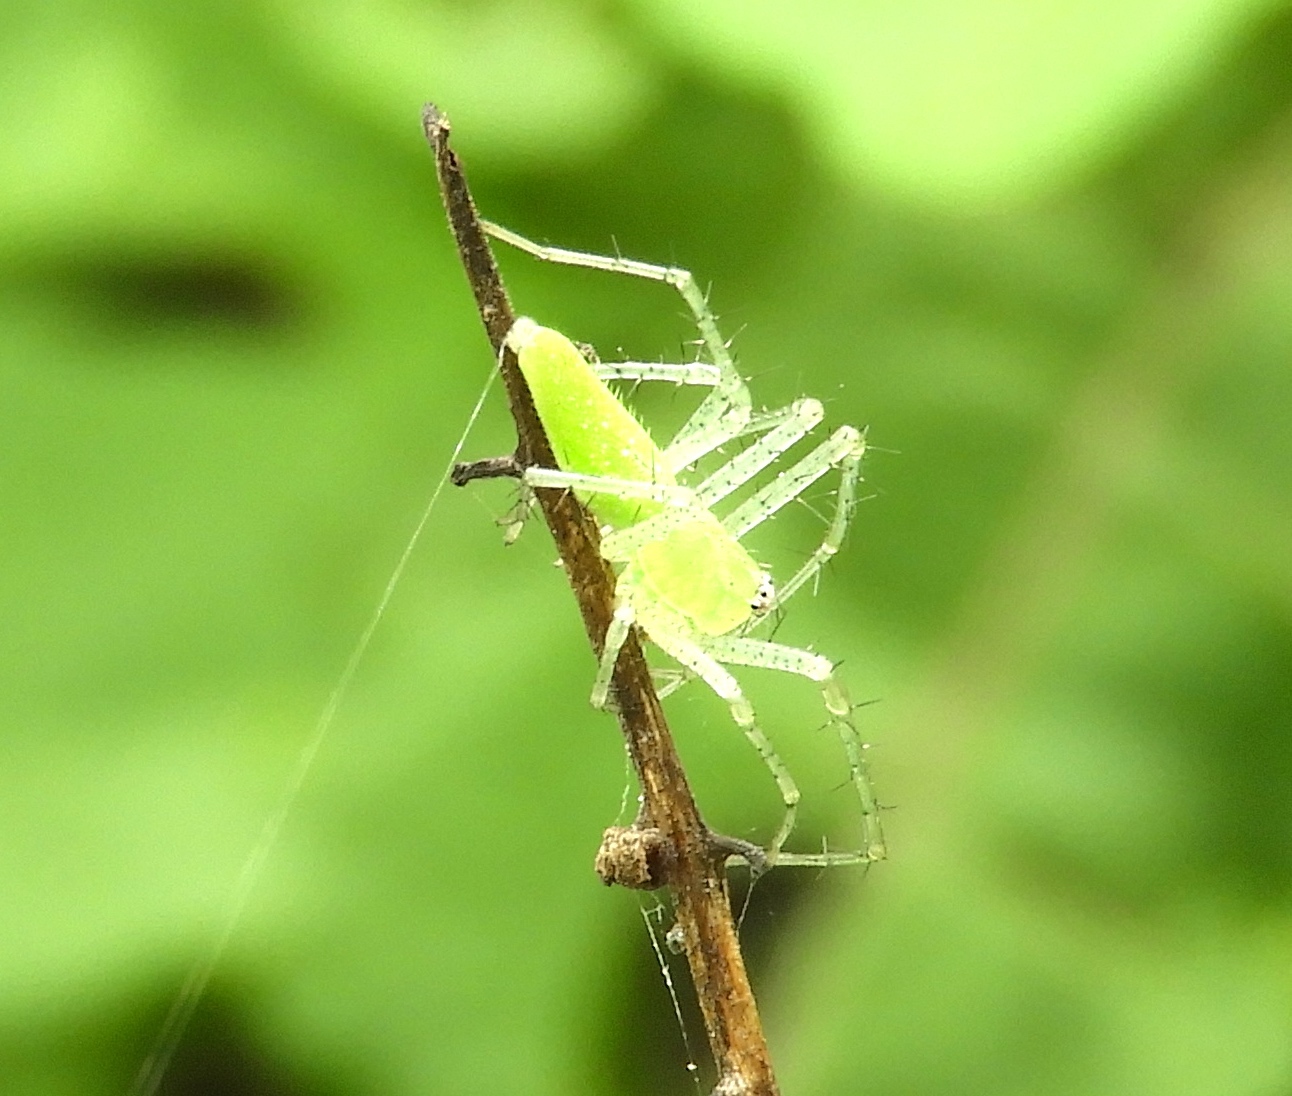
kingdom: Animalia
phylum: Arthropoda
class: Arachnida
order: Araneae
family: Oxyopidae
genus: Peucetia
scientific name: Peucetia
